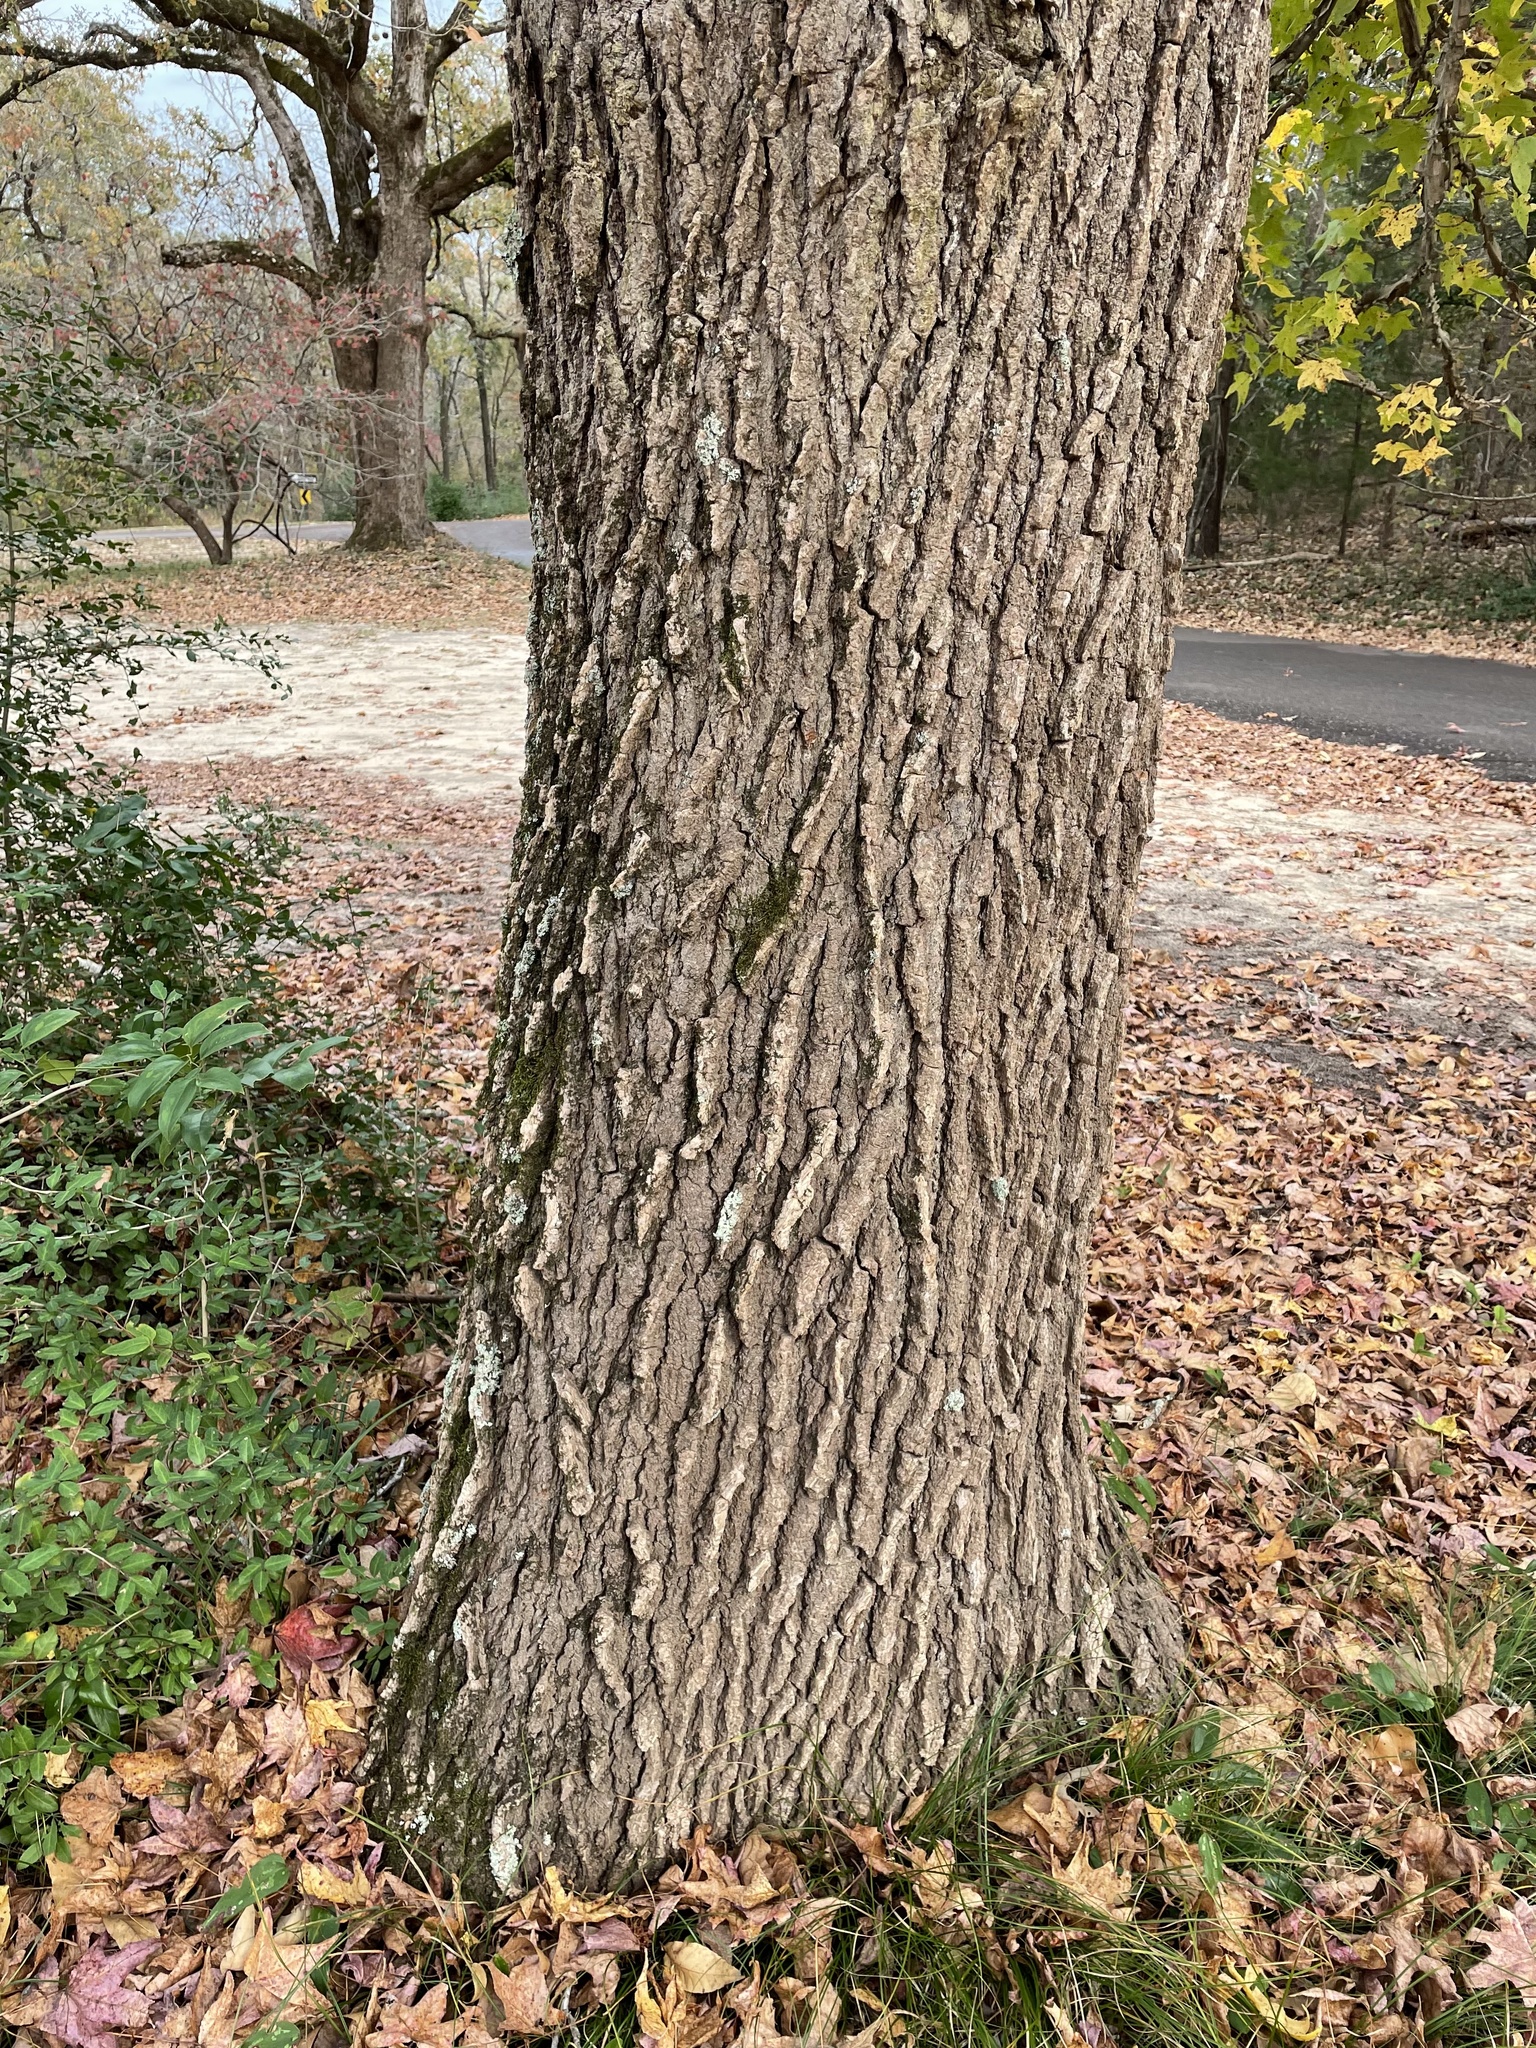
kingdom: Plantae
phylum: Tracheophyta
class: Magnoliopsida
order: Saxifragales
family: Altingiaceae
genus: Liquidambar
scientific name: Liquidambar styraciflua
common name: Sweet gum
